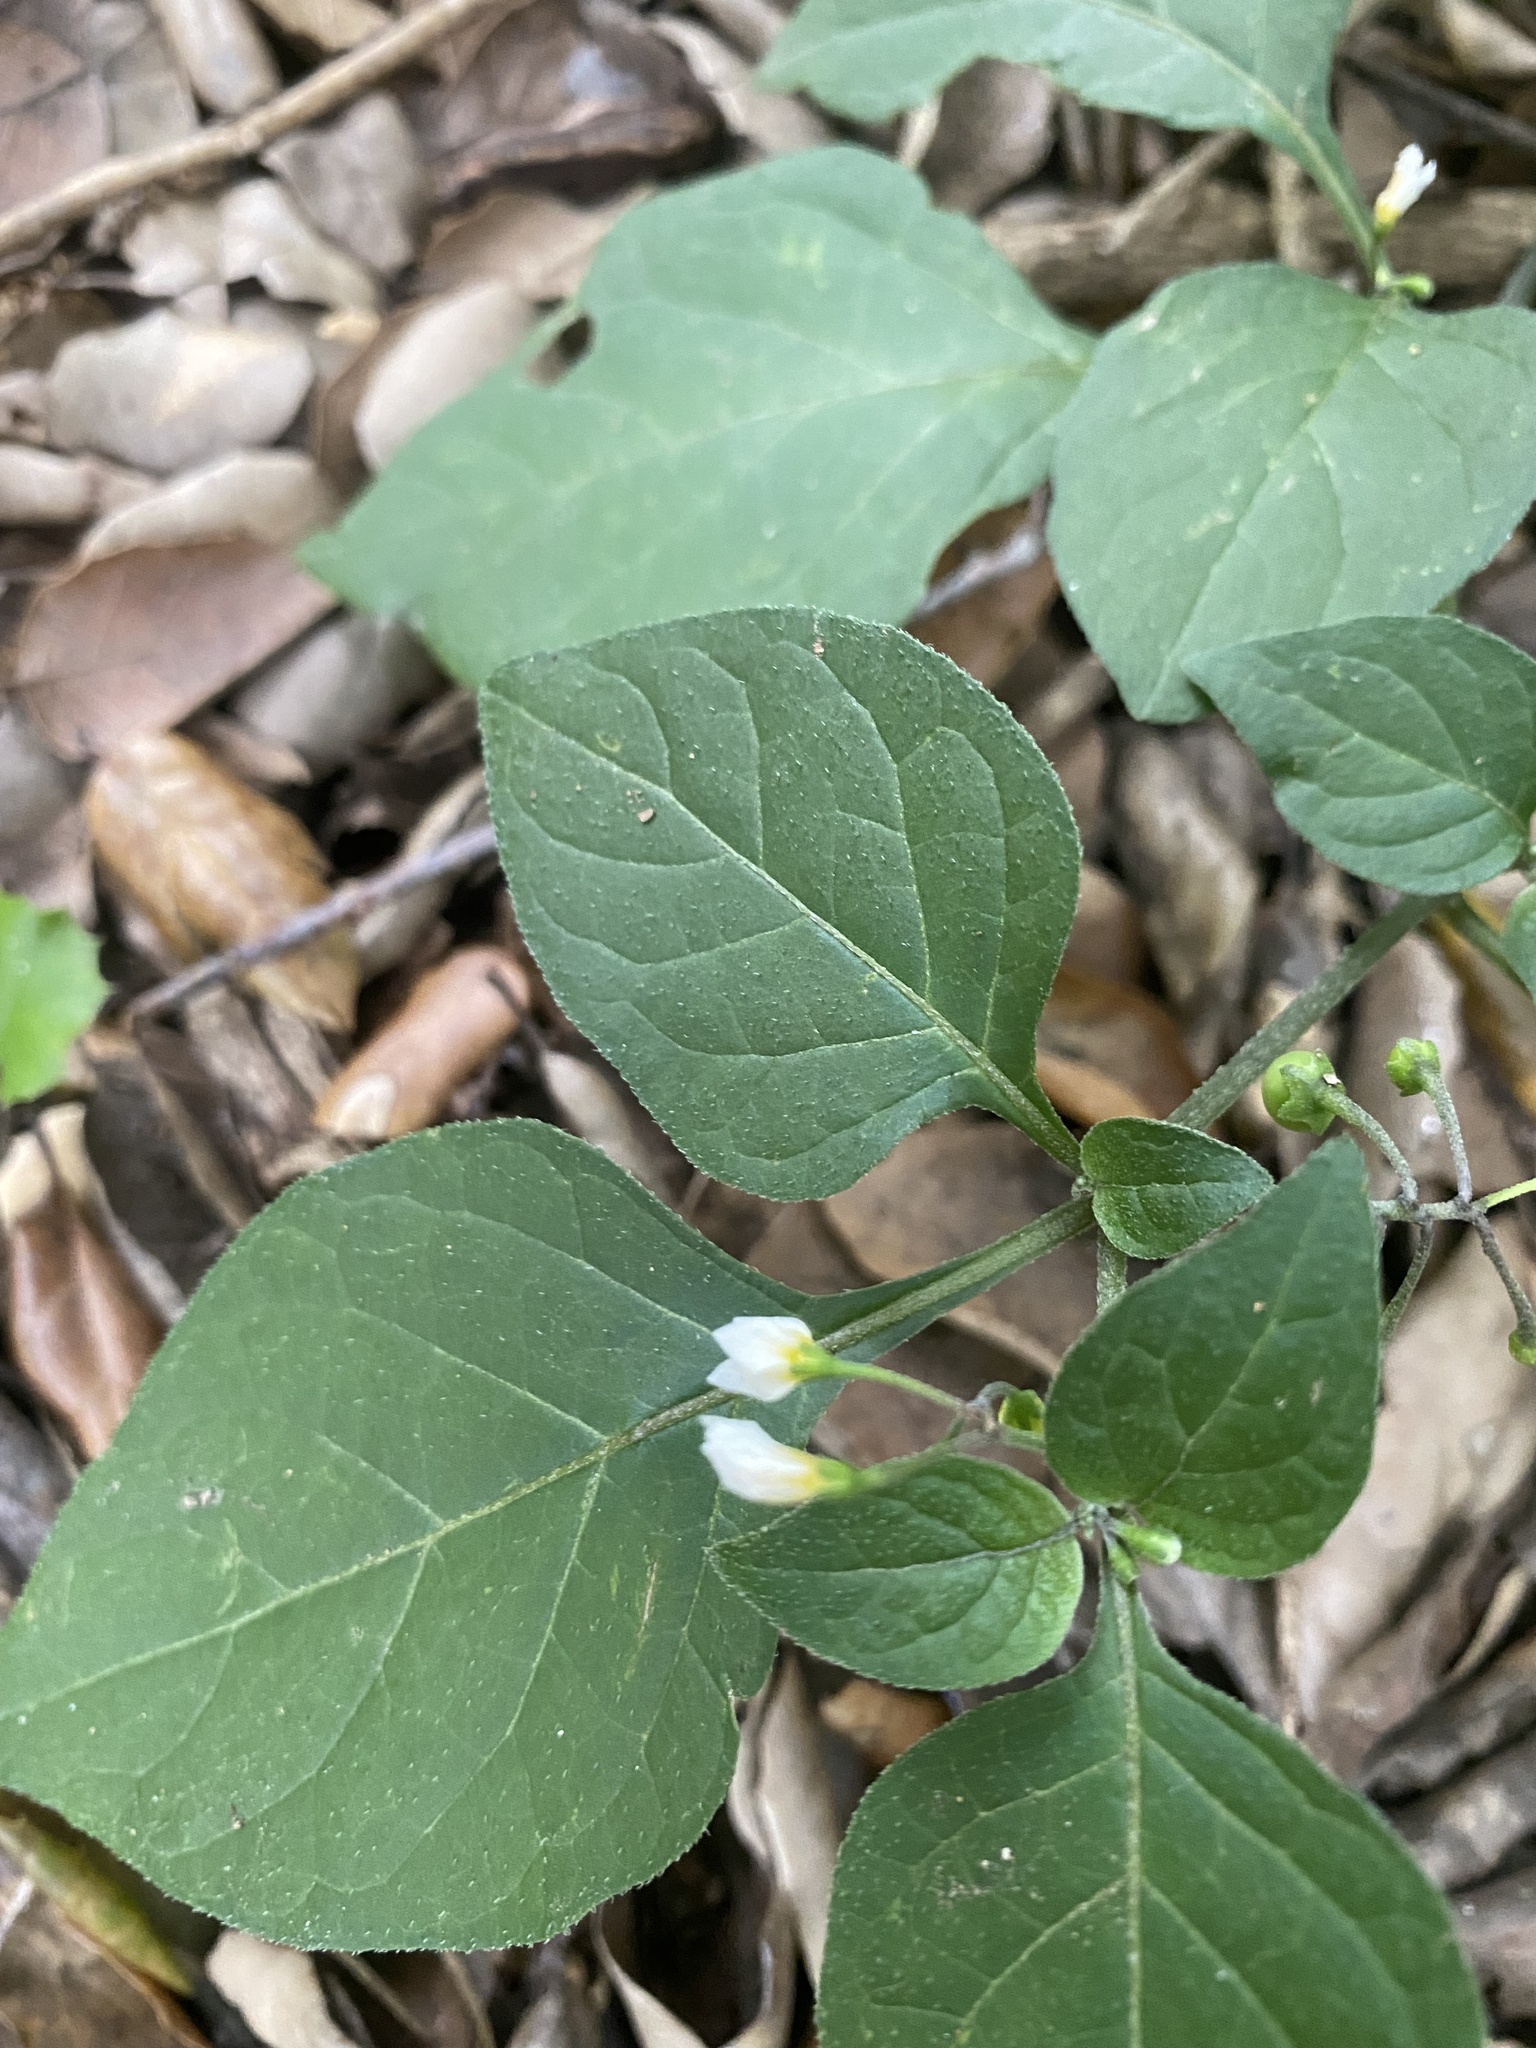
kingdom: Plantae
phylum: Tracheophyta
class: Magnoliopsida
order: Solanales
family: Solanaceae
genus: Solanum
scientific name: Solanum nigrum
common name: Black nightshade
